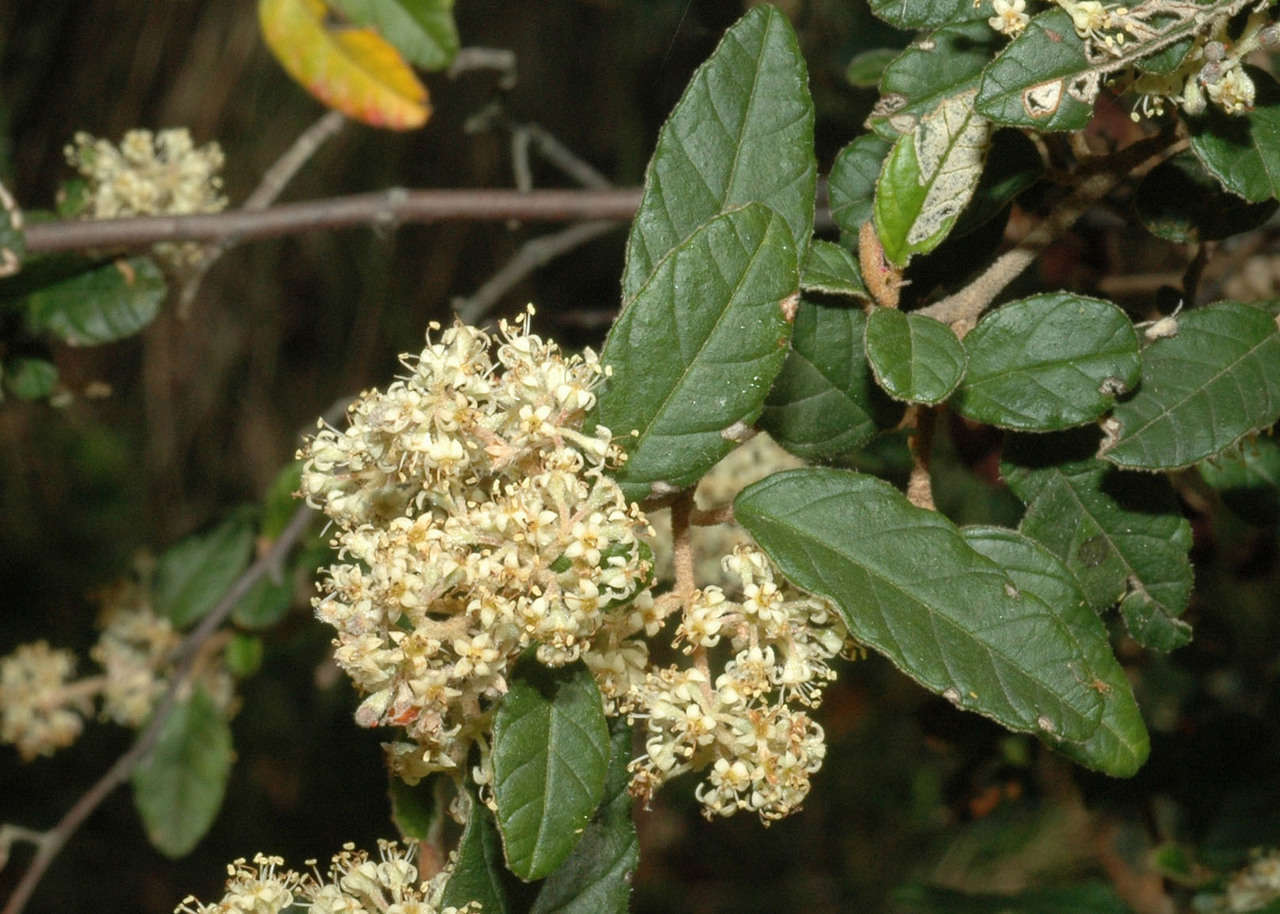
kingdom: Plantae
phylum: Tracheophyta
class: Magnoliopsida
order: Rosales
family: Rhamnaceae
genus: Pomaderris
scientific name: Pomaderris prunifolia
